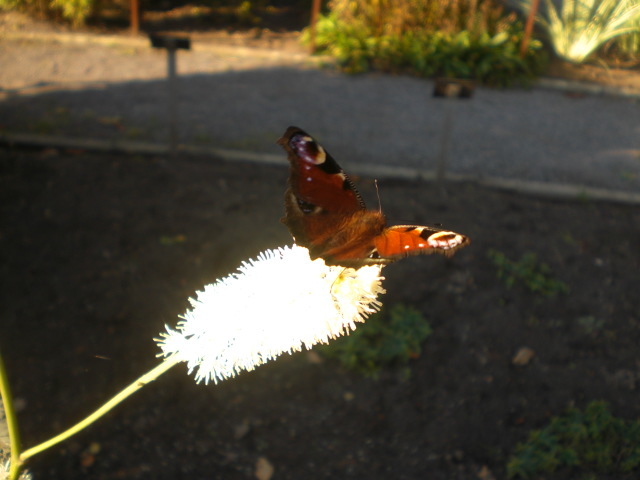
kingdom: Animalia
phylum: Arthropoda
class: Insecta
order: Lepidoptera
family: Nymphalidae
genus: Aglais
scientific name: Aglais io
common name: Peacock
